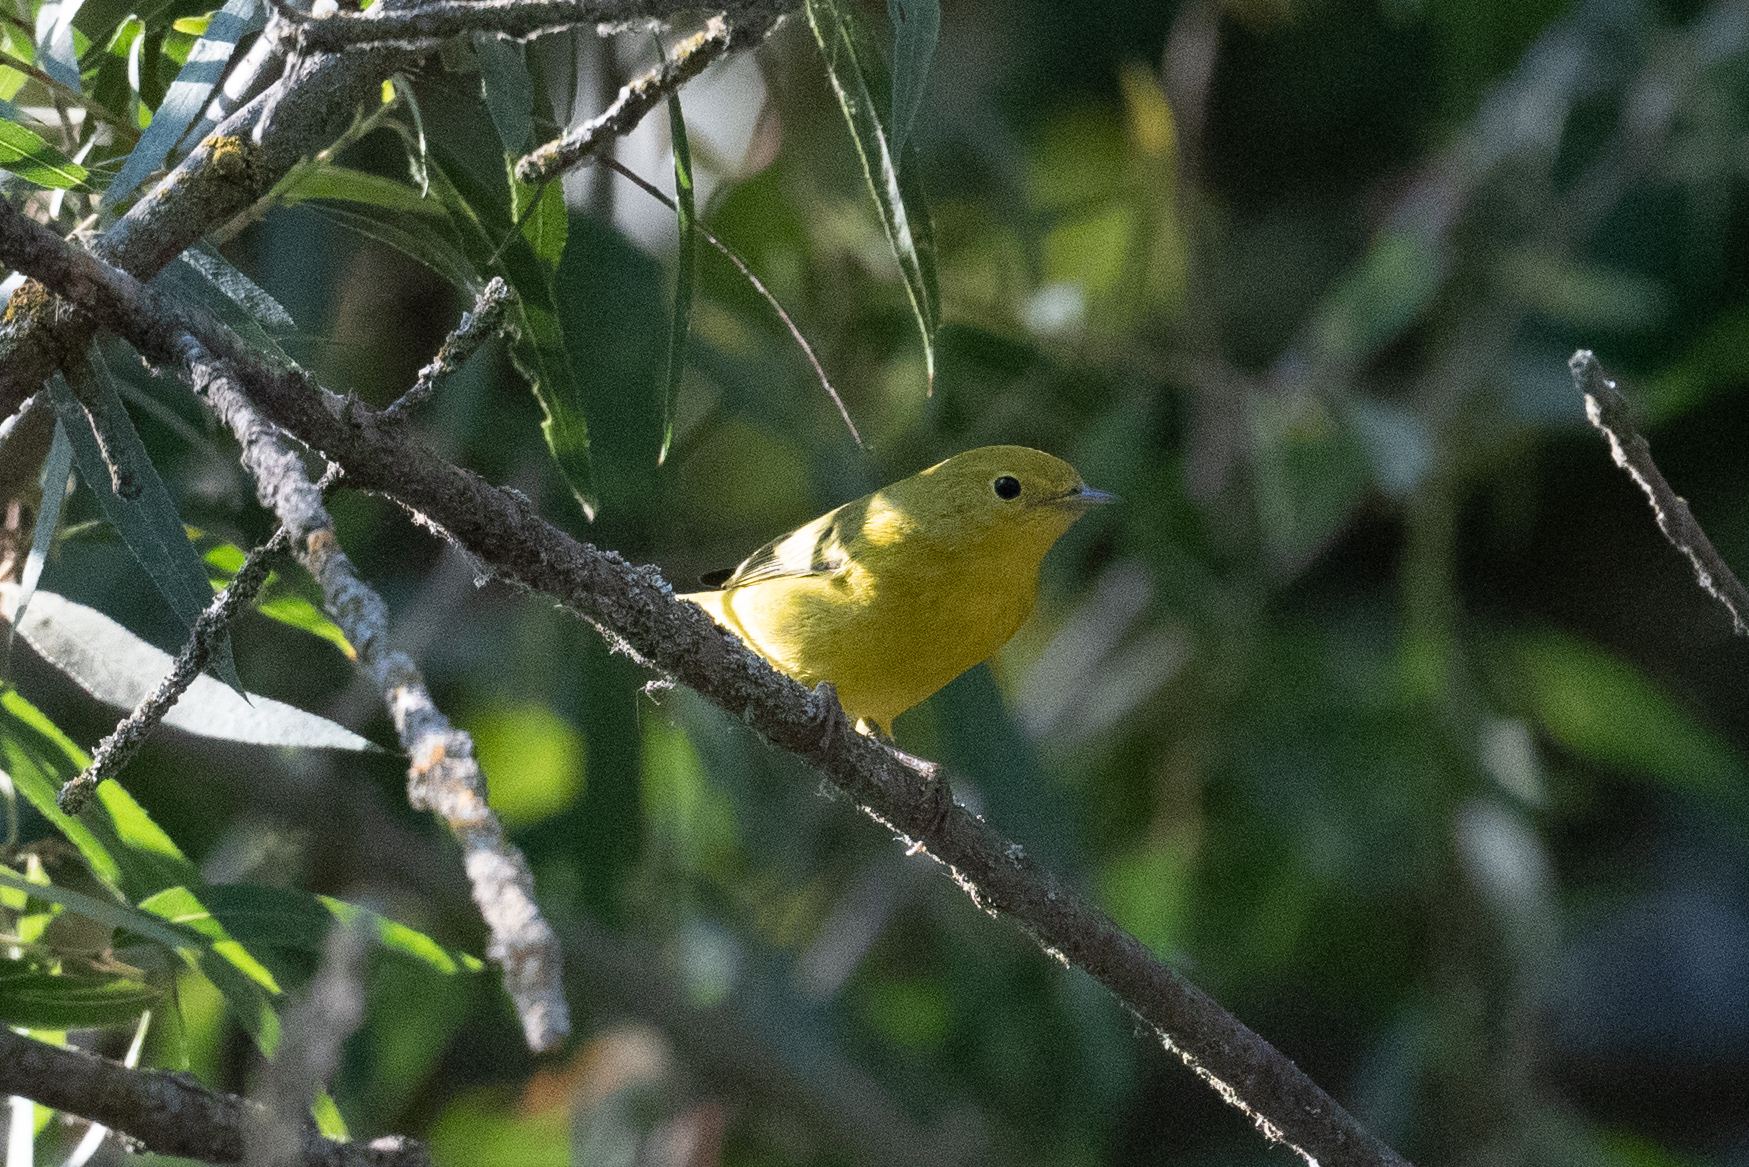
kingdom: Animalia
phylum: Chordata
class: Aves
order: Passeriformes
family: Parulidae
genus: Setophaga
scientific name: Setophaga petechia
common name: Yellow warbler
